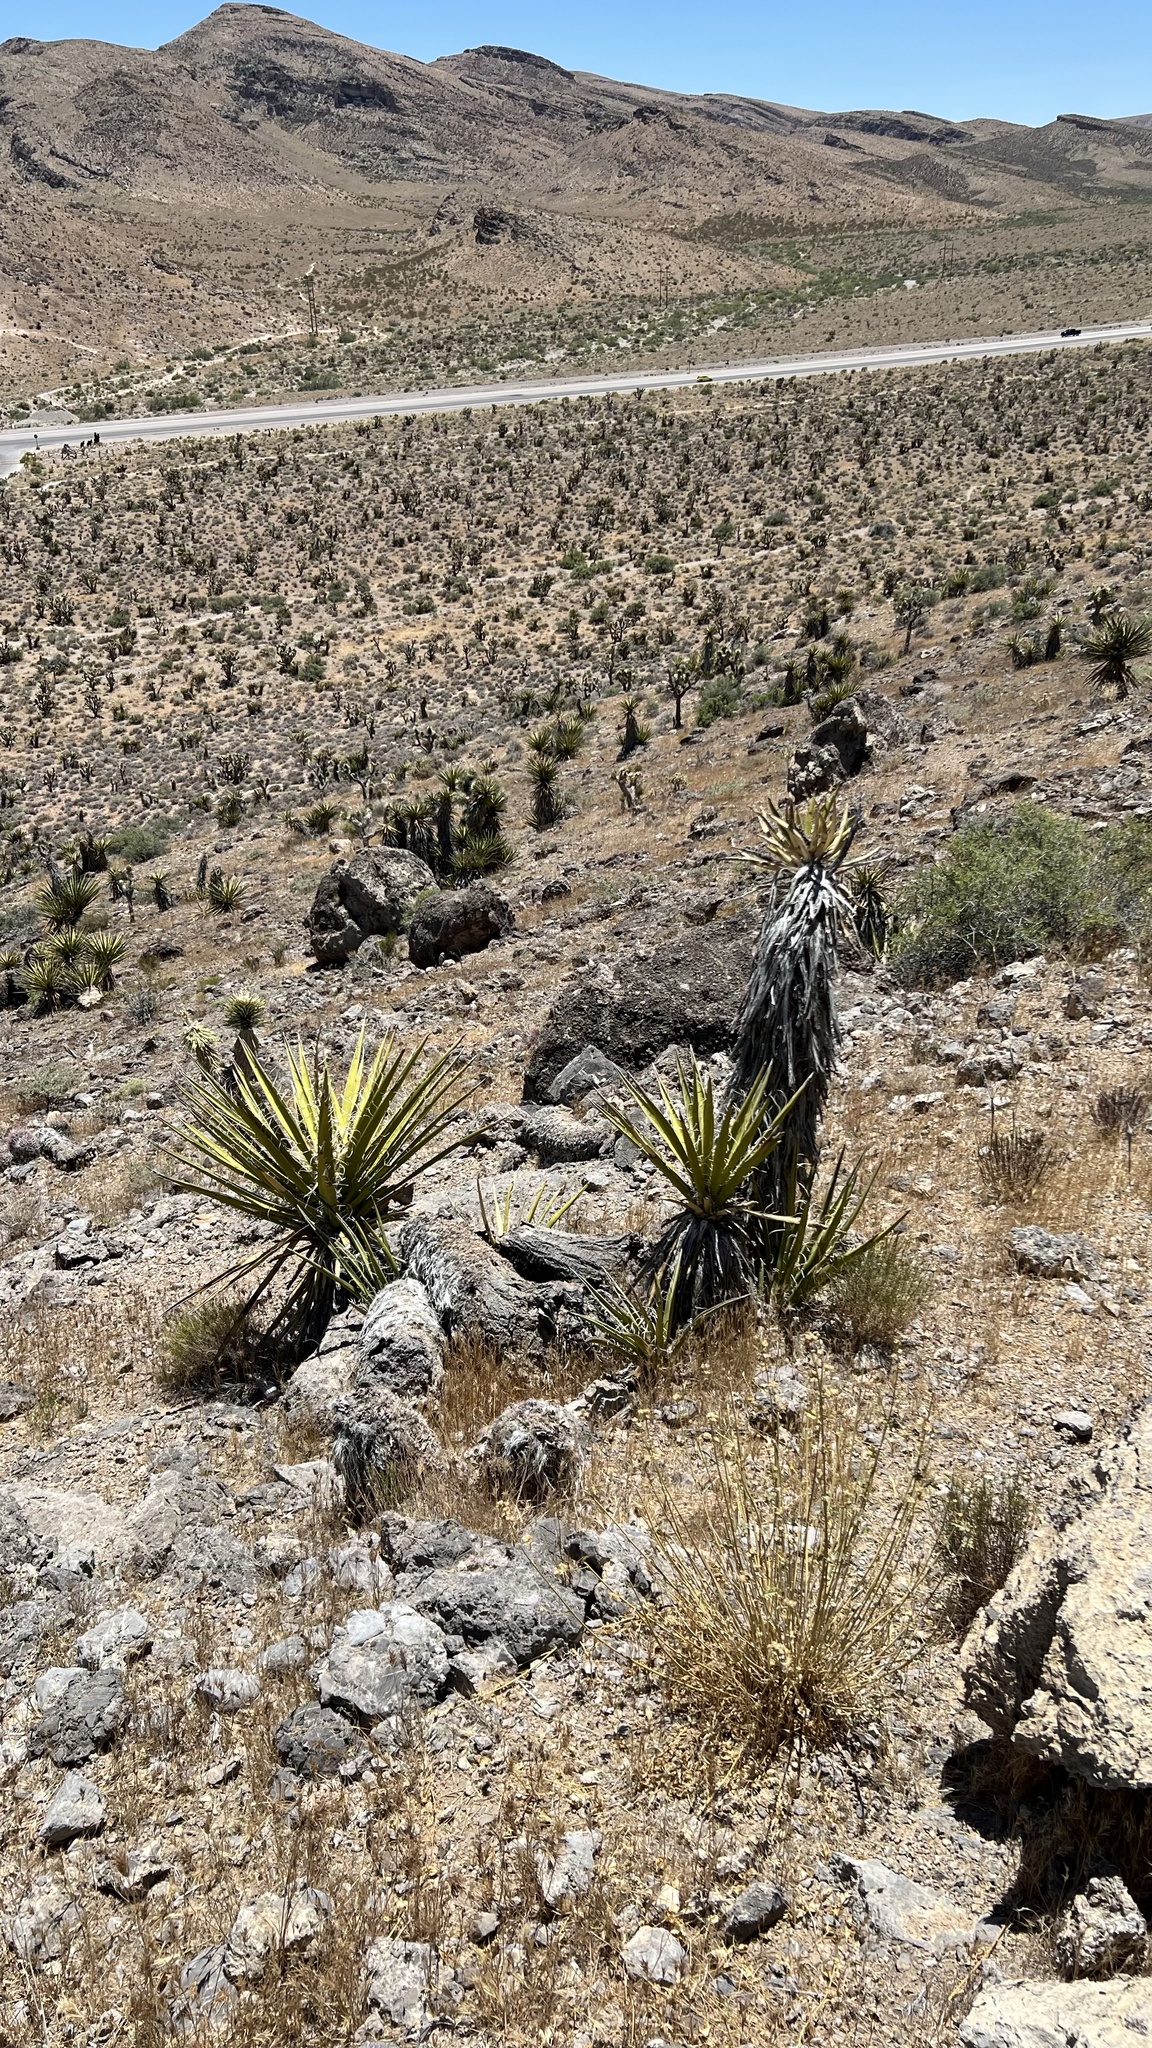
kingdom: Plantae
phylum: Tracheophyta
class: Liliopsida
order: Asparagales
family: Asparagaceae
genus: Yucca
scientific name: Yucca schidigera
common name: Mojave yucca
